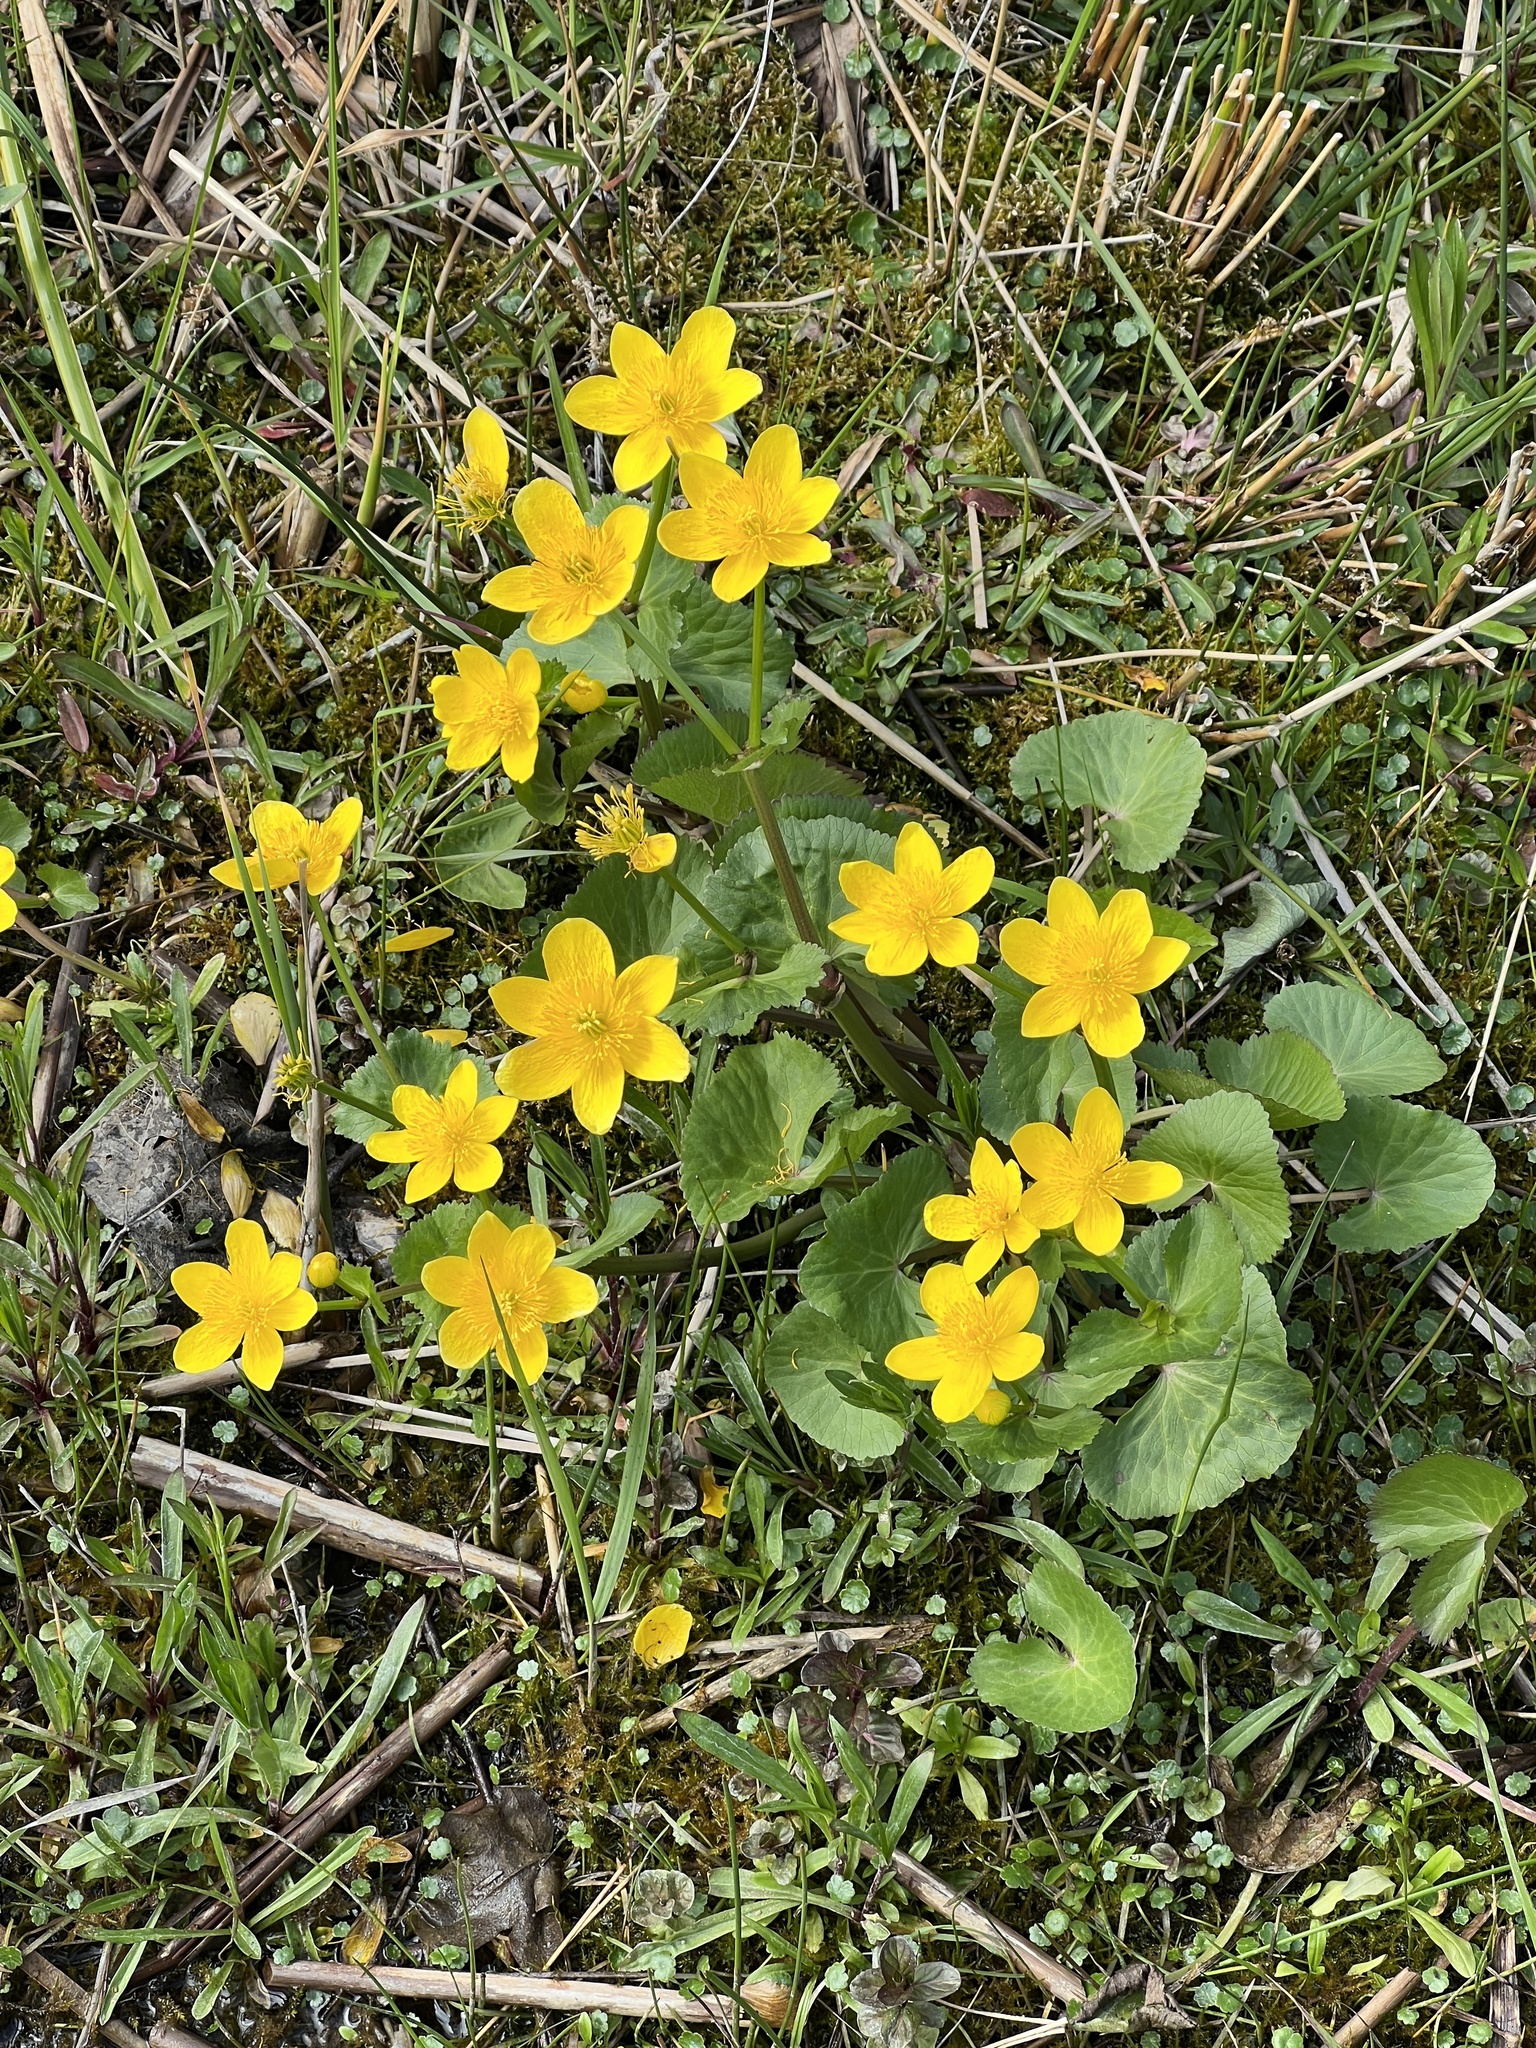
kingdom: Plantae
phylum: Tracheophyta
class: Magnoliopsida
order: Ranunculales
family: Ranunculaceae
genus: Caltha
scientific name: Caltha palustris
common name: Marsh marigold
